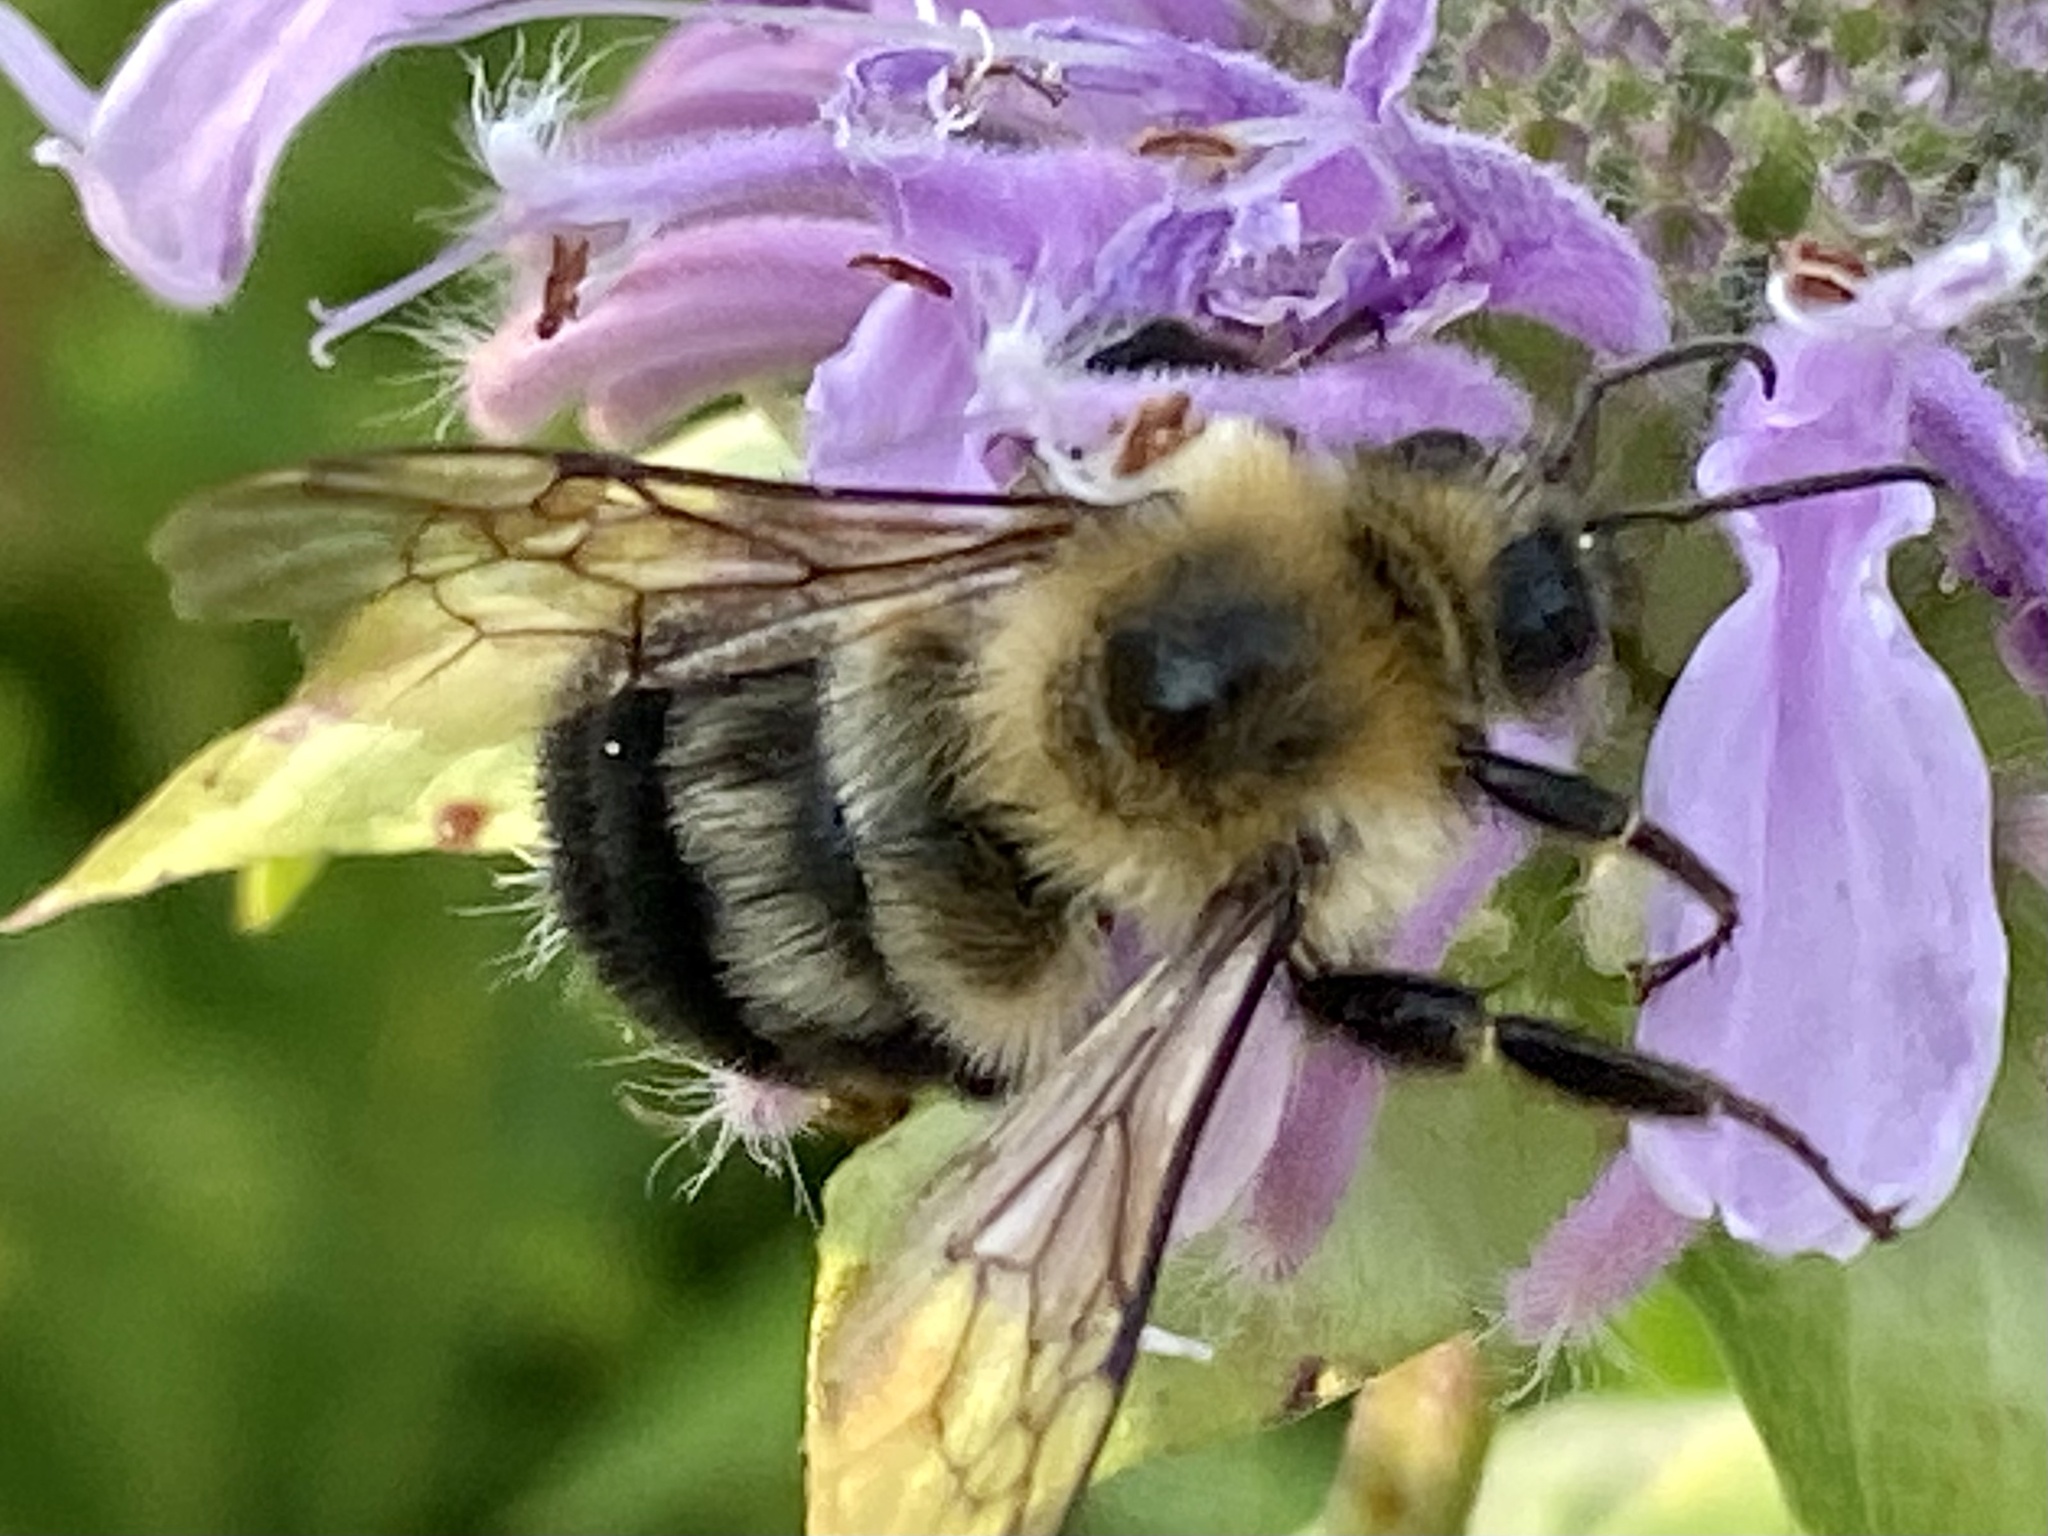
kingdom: Animalia
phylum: Arthropoda
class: Insecta
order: Hymenoptera
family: Apidae
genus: Bombus
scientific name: Bombus bimaculatus
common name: Two-spotted bumble bee
